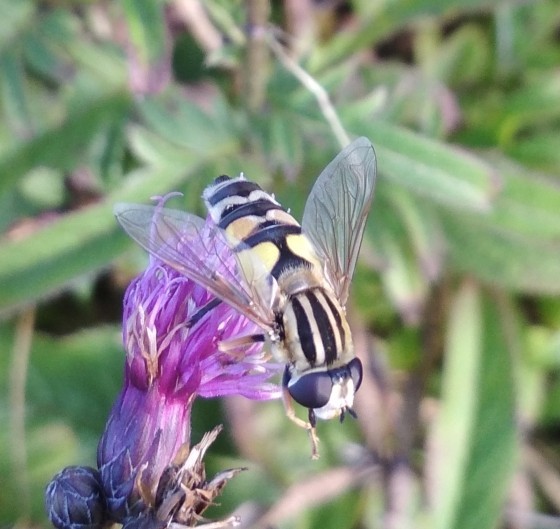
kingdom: Animalia
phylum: Arthropoda
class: Insecta
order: Diptera
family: Syrphidae
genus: Helophilus
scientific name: Helophilus trivittatus
